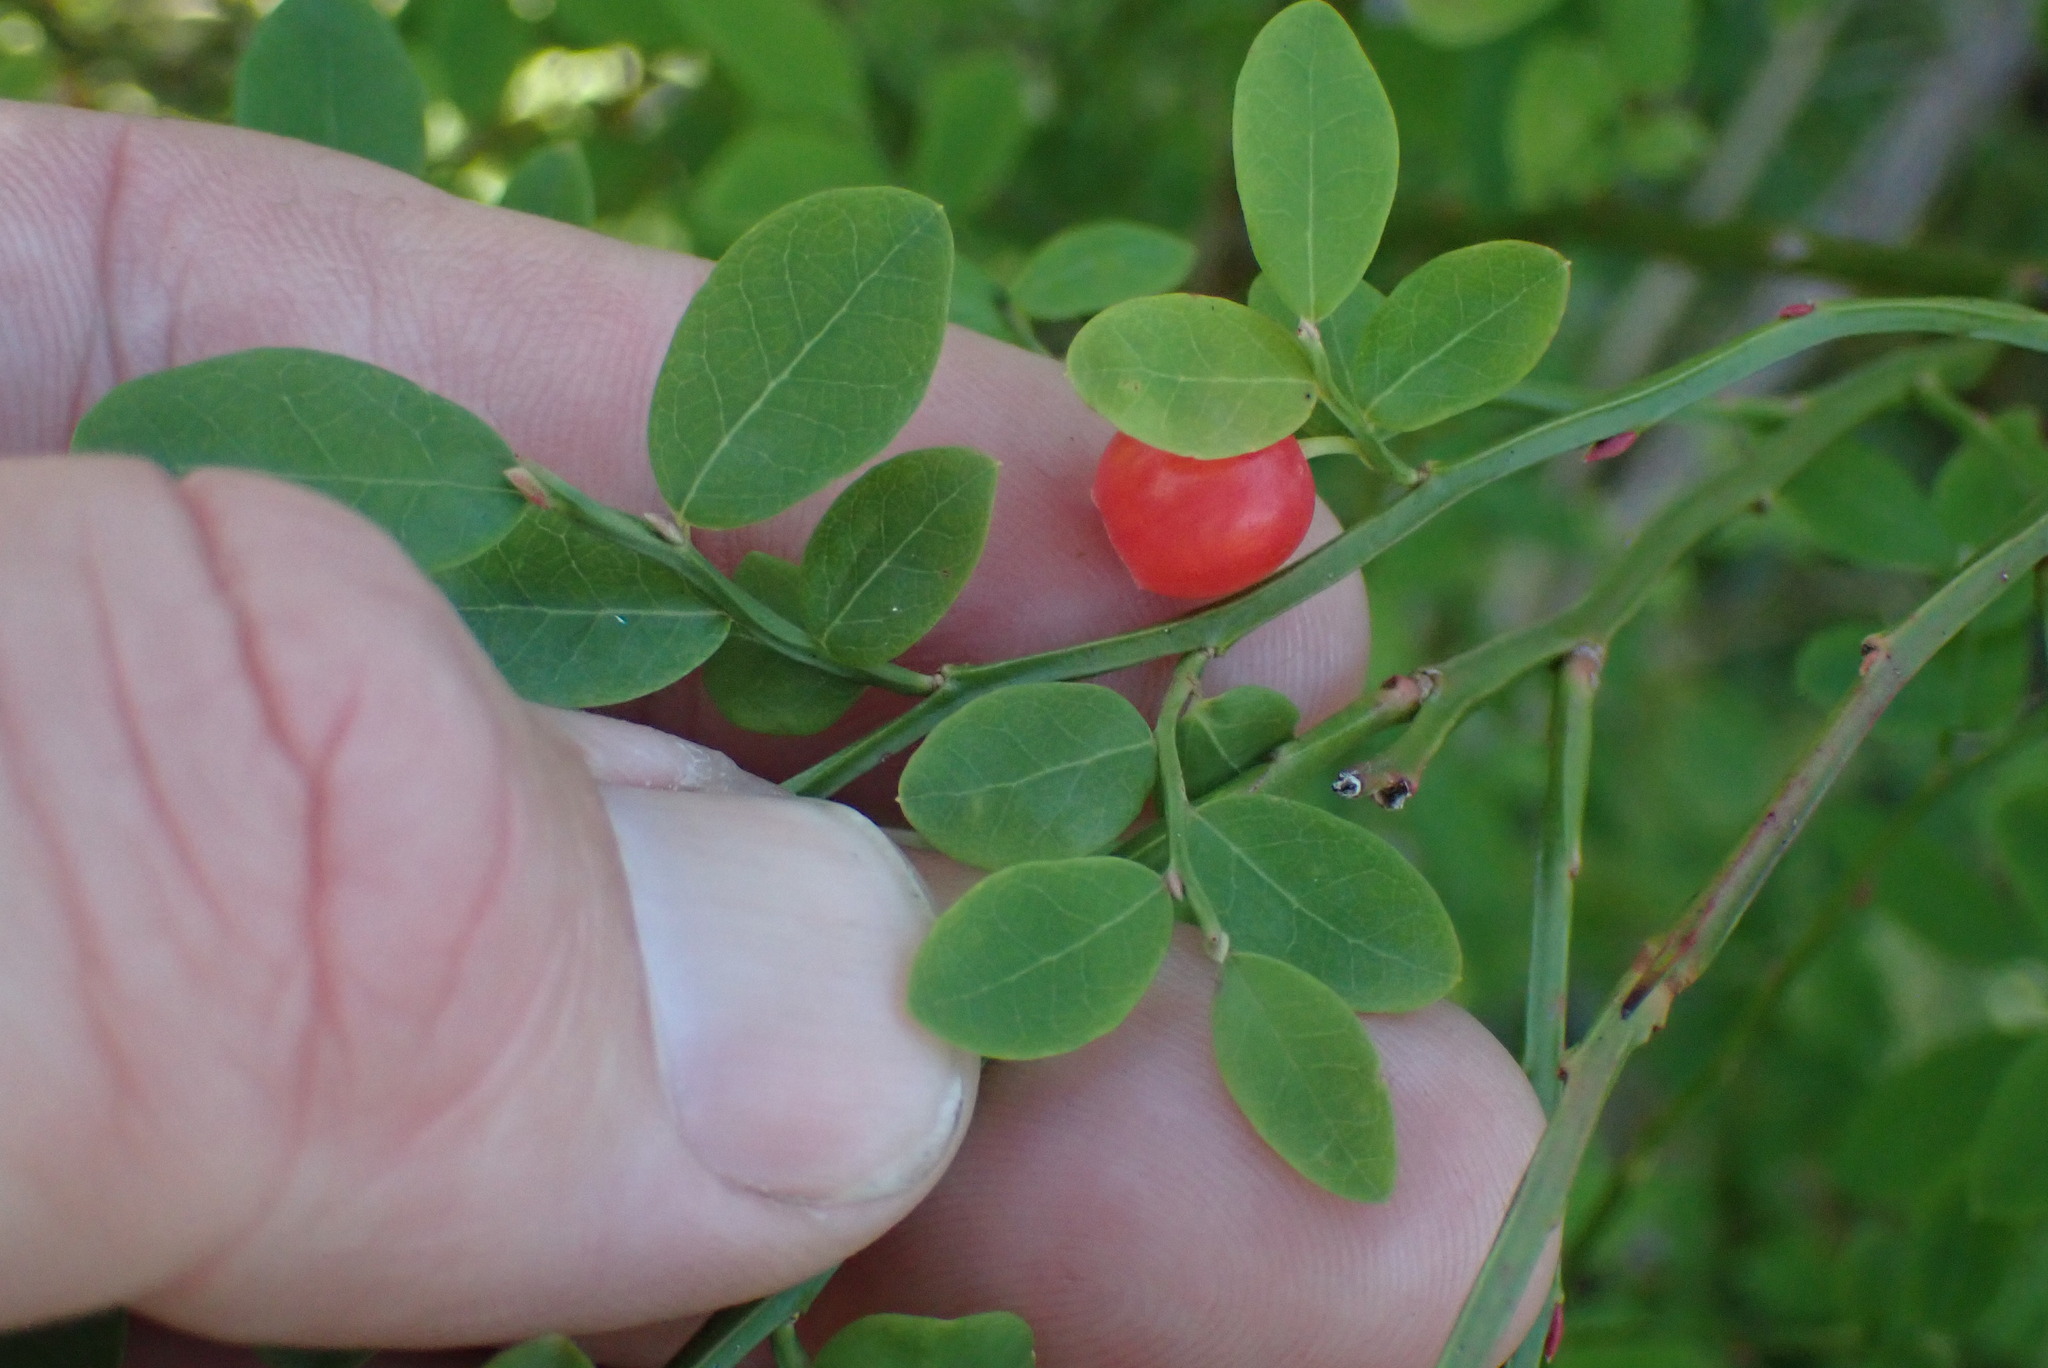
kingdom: Plantae
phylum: Tracheophyta
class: Magnoliopsida
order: Ericales
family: Ericaceae
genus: Vaccinium
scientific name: Vaccinium parvifolium
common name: Red-huckleberry
